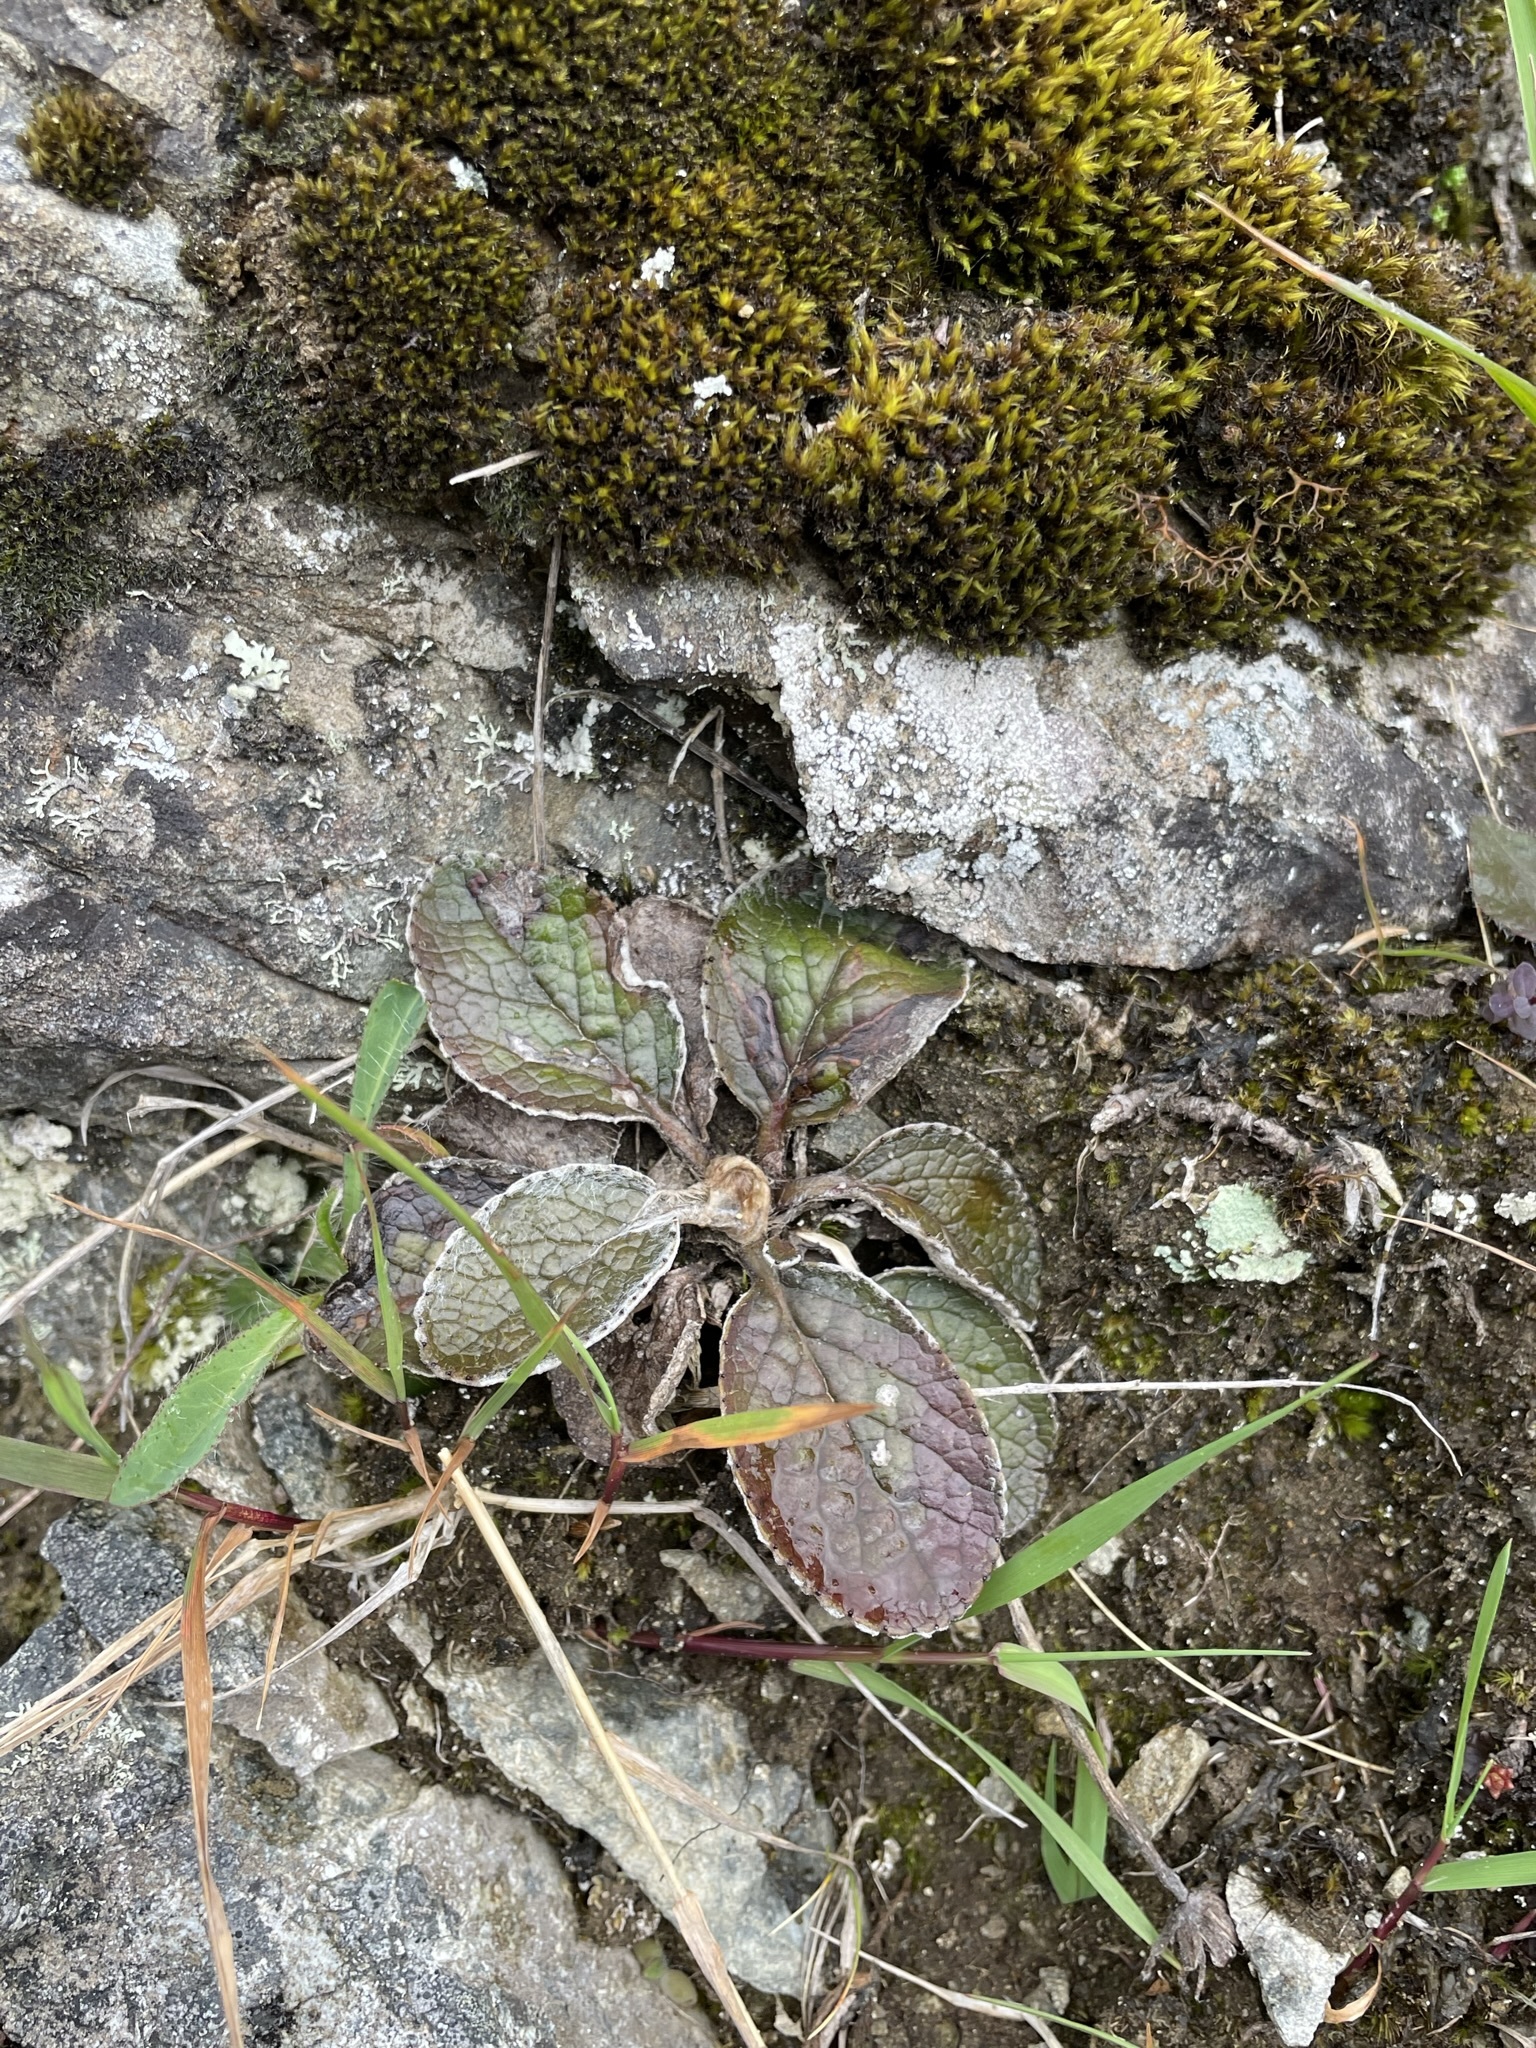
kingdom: Plantae
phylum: Tracheophyta
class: Magnoliopsida
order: Asterales
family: Asteraceae
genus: Brachyglottis
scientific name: Brachyglottis lagopus
